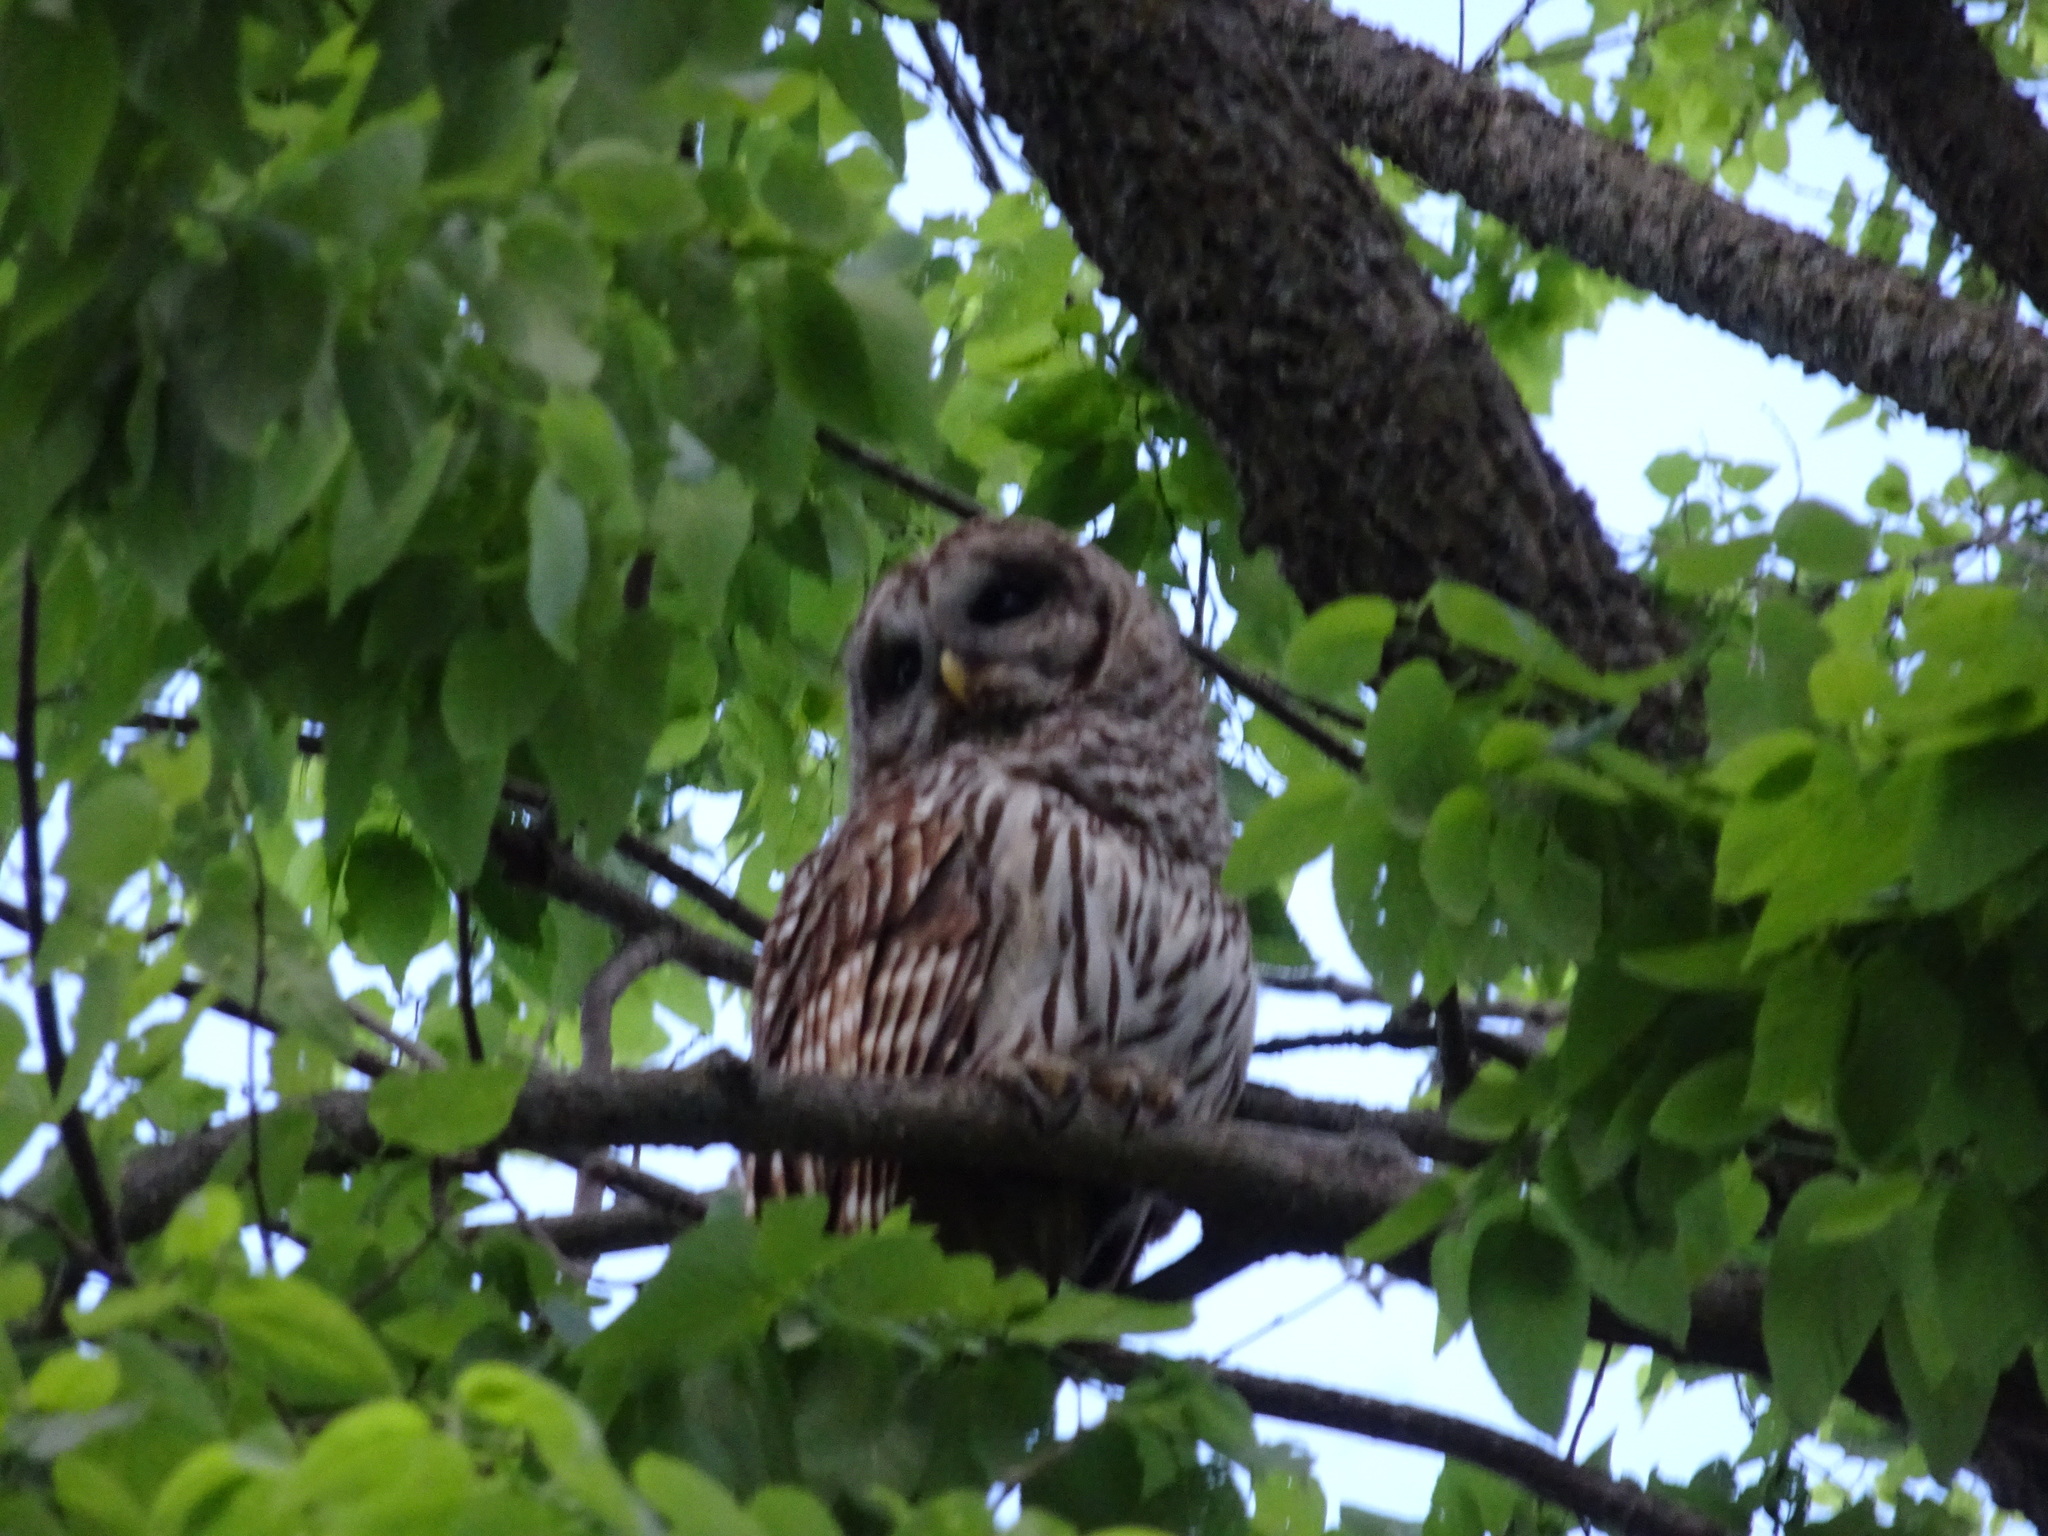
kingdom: Animalia
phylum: Chordata
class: Aves
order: Strigiformes
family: Strigidae
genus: Strix
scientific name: Strix varia
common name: Barred owl
